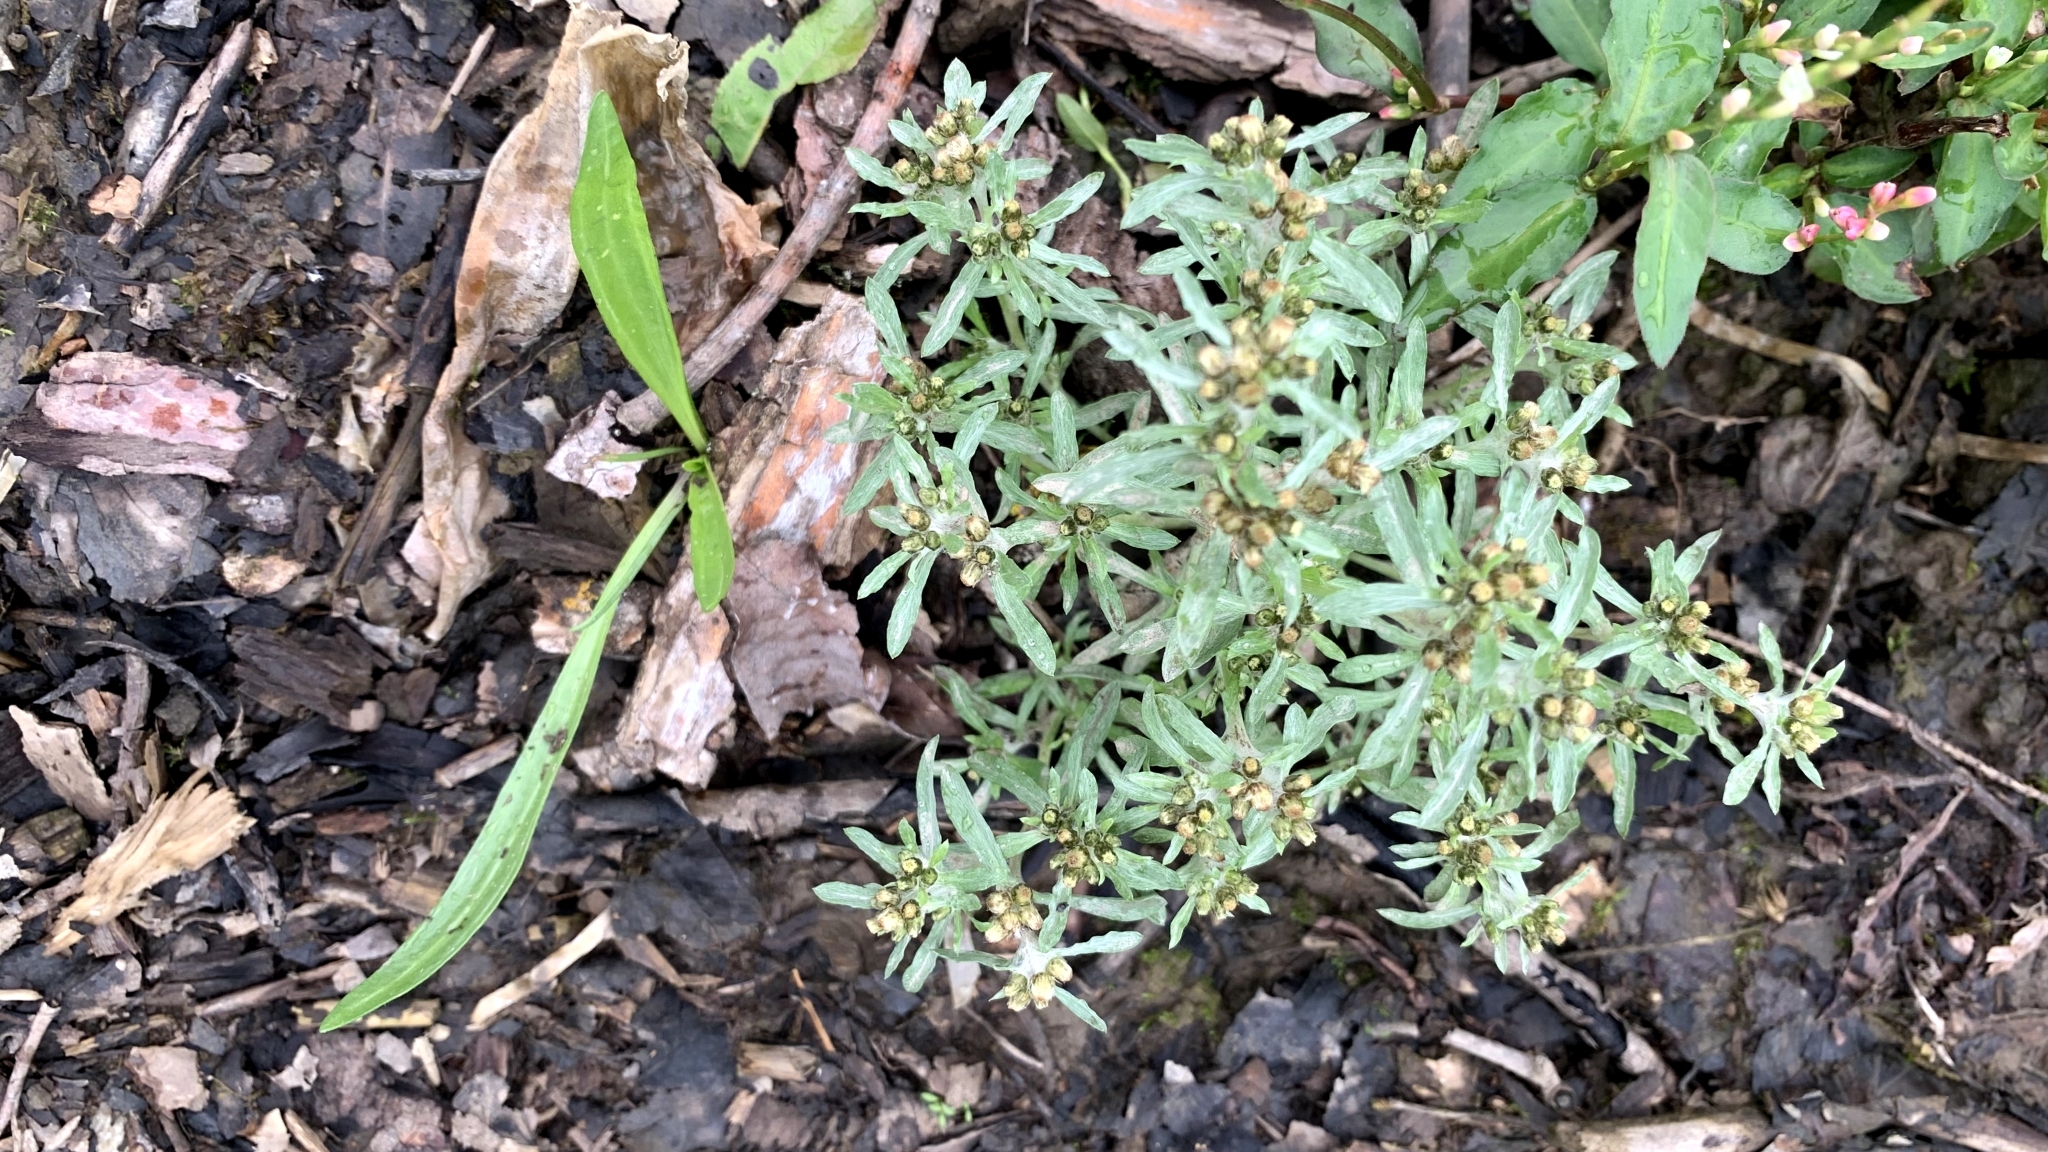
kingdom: Plantae
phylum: Tracheophyta
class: Magnoliopsida
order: Asterales
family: Asteraceae
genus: Gnaphalium
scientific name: Gnaphalium uliginosum
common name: Marsh cudweed
